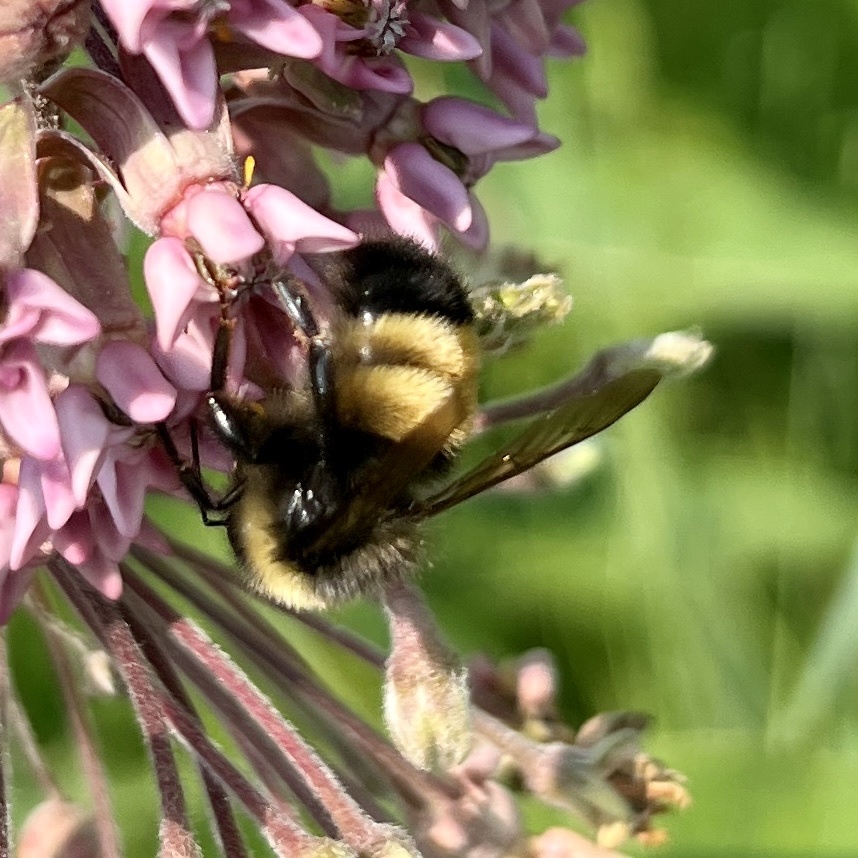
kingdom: Animalia
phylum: Arthropoda
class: Insecta
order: Hymenoptera
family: Apidae
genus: Bombus
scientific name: Bombus terricola
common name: Yellow-banded bumble bee
